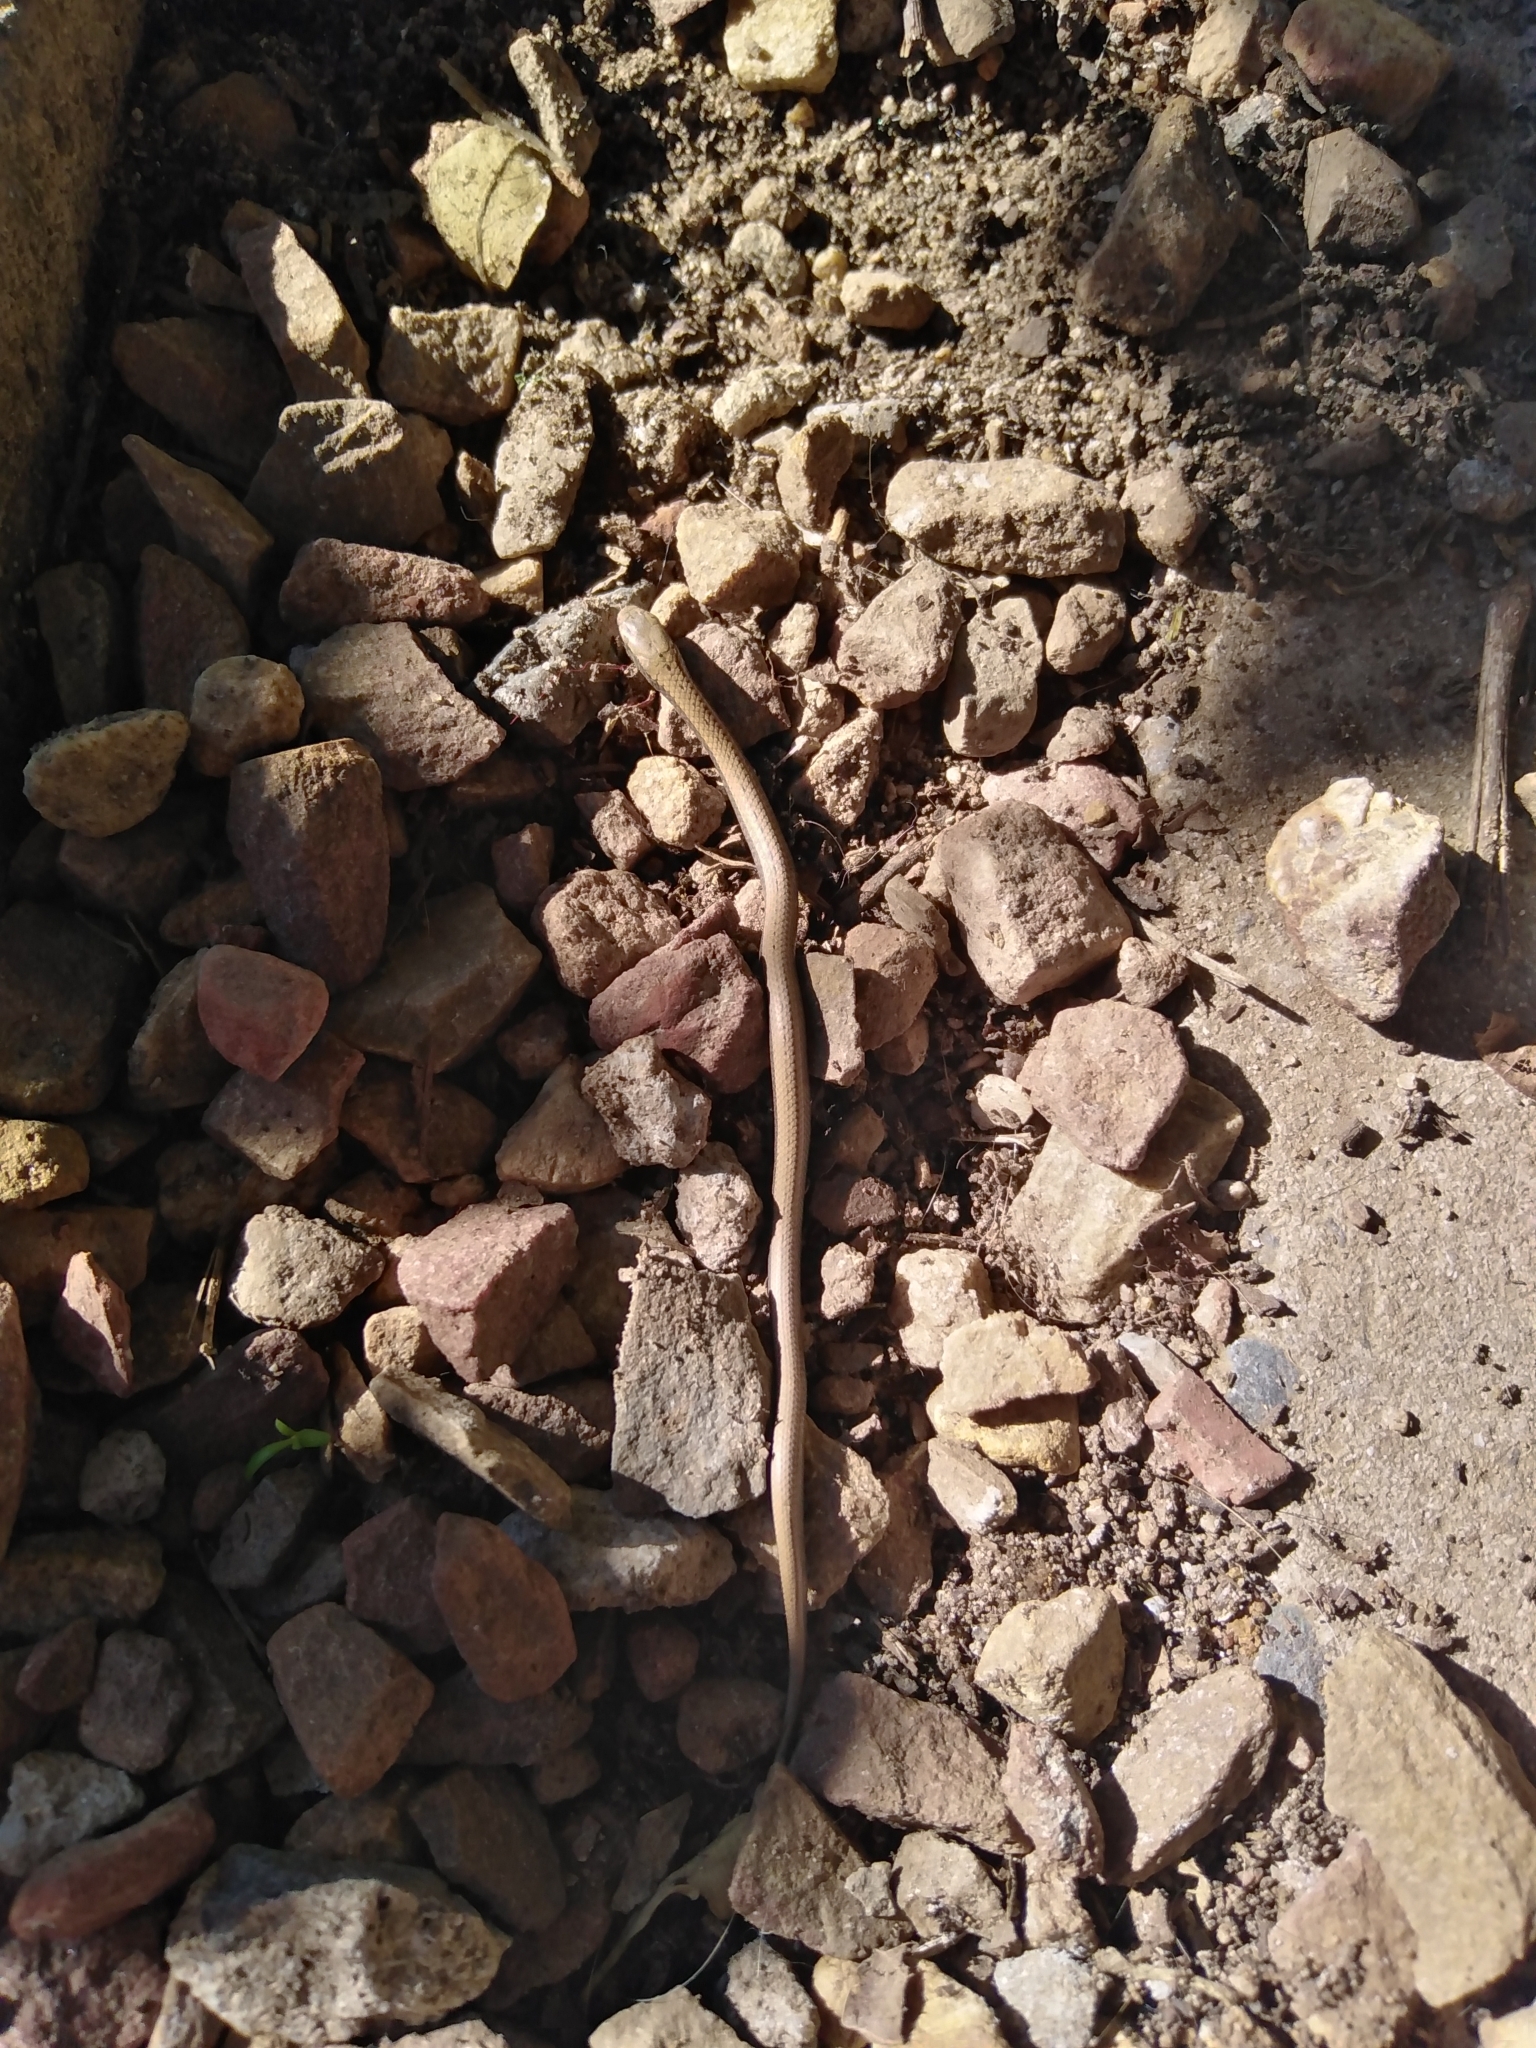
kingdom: Animalia
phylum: Chordata
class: Squamata
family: Pseudoxyrhophiidae
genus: Duberria
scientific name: Duberria lutrix
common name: Common slug eater
